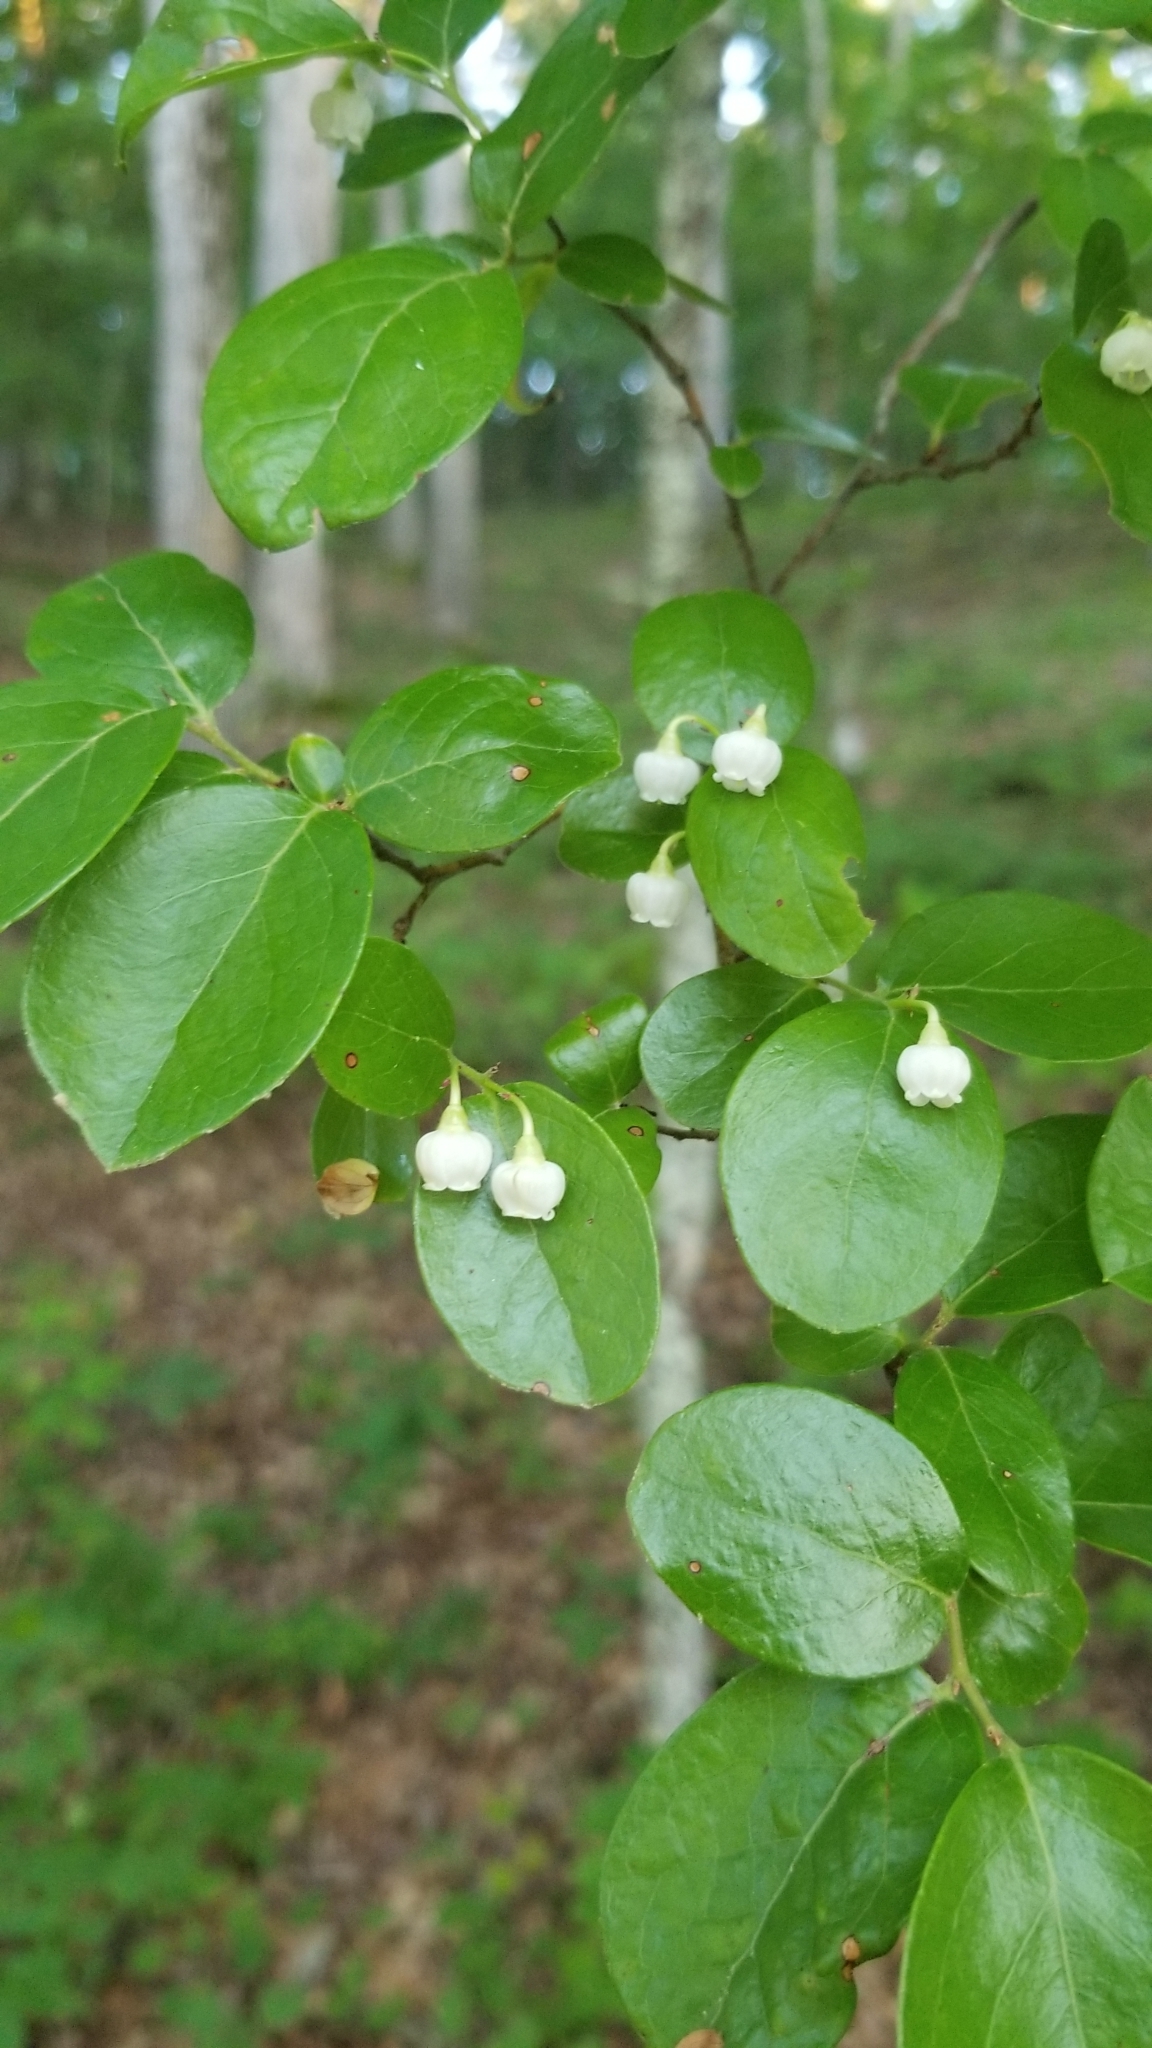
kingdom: Plantae
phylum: Tracheophyta
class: Magnoliopsida
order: Ericales
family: Ericaceae
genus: Vaccinium
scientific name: Vaccinium arboreum
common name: Farkleberry
